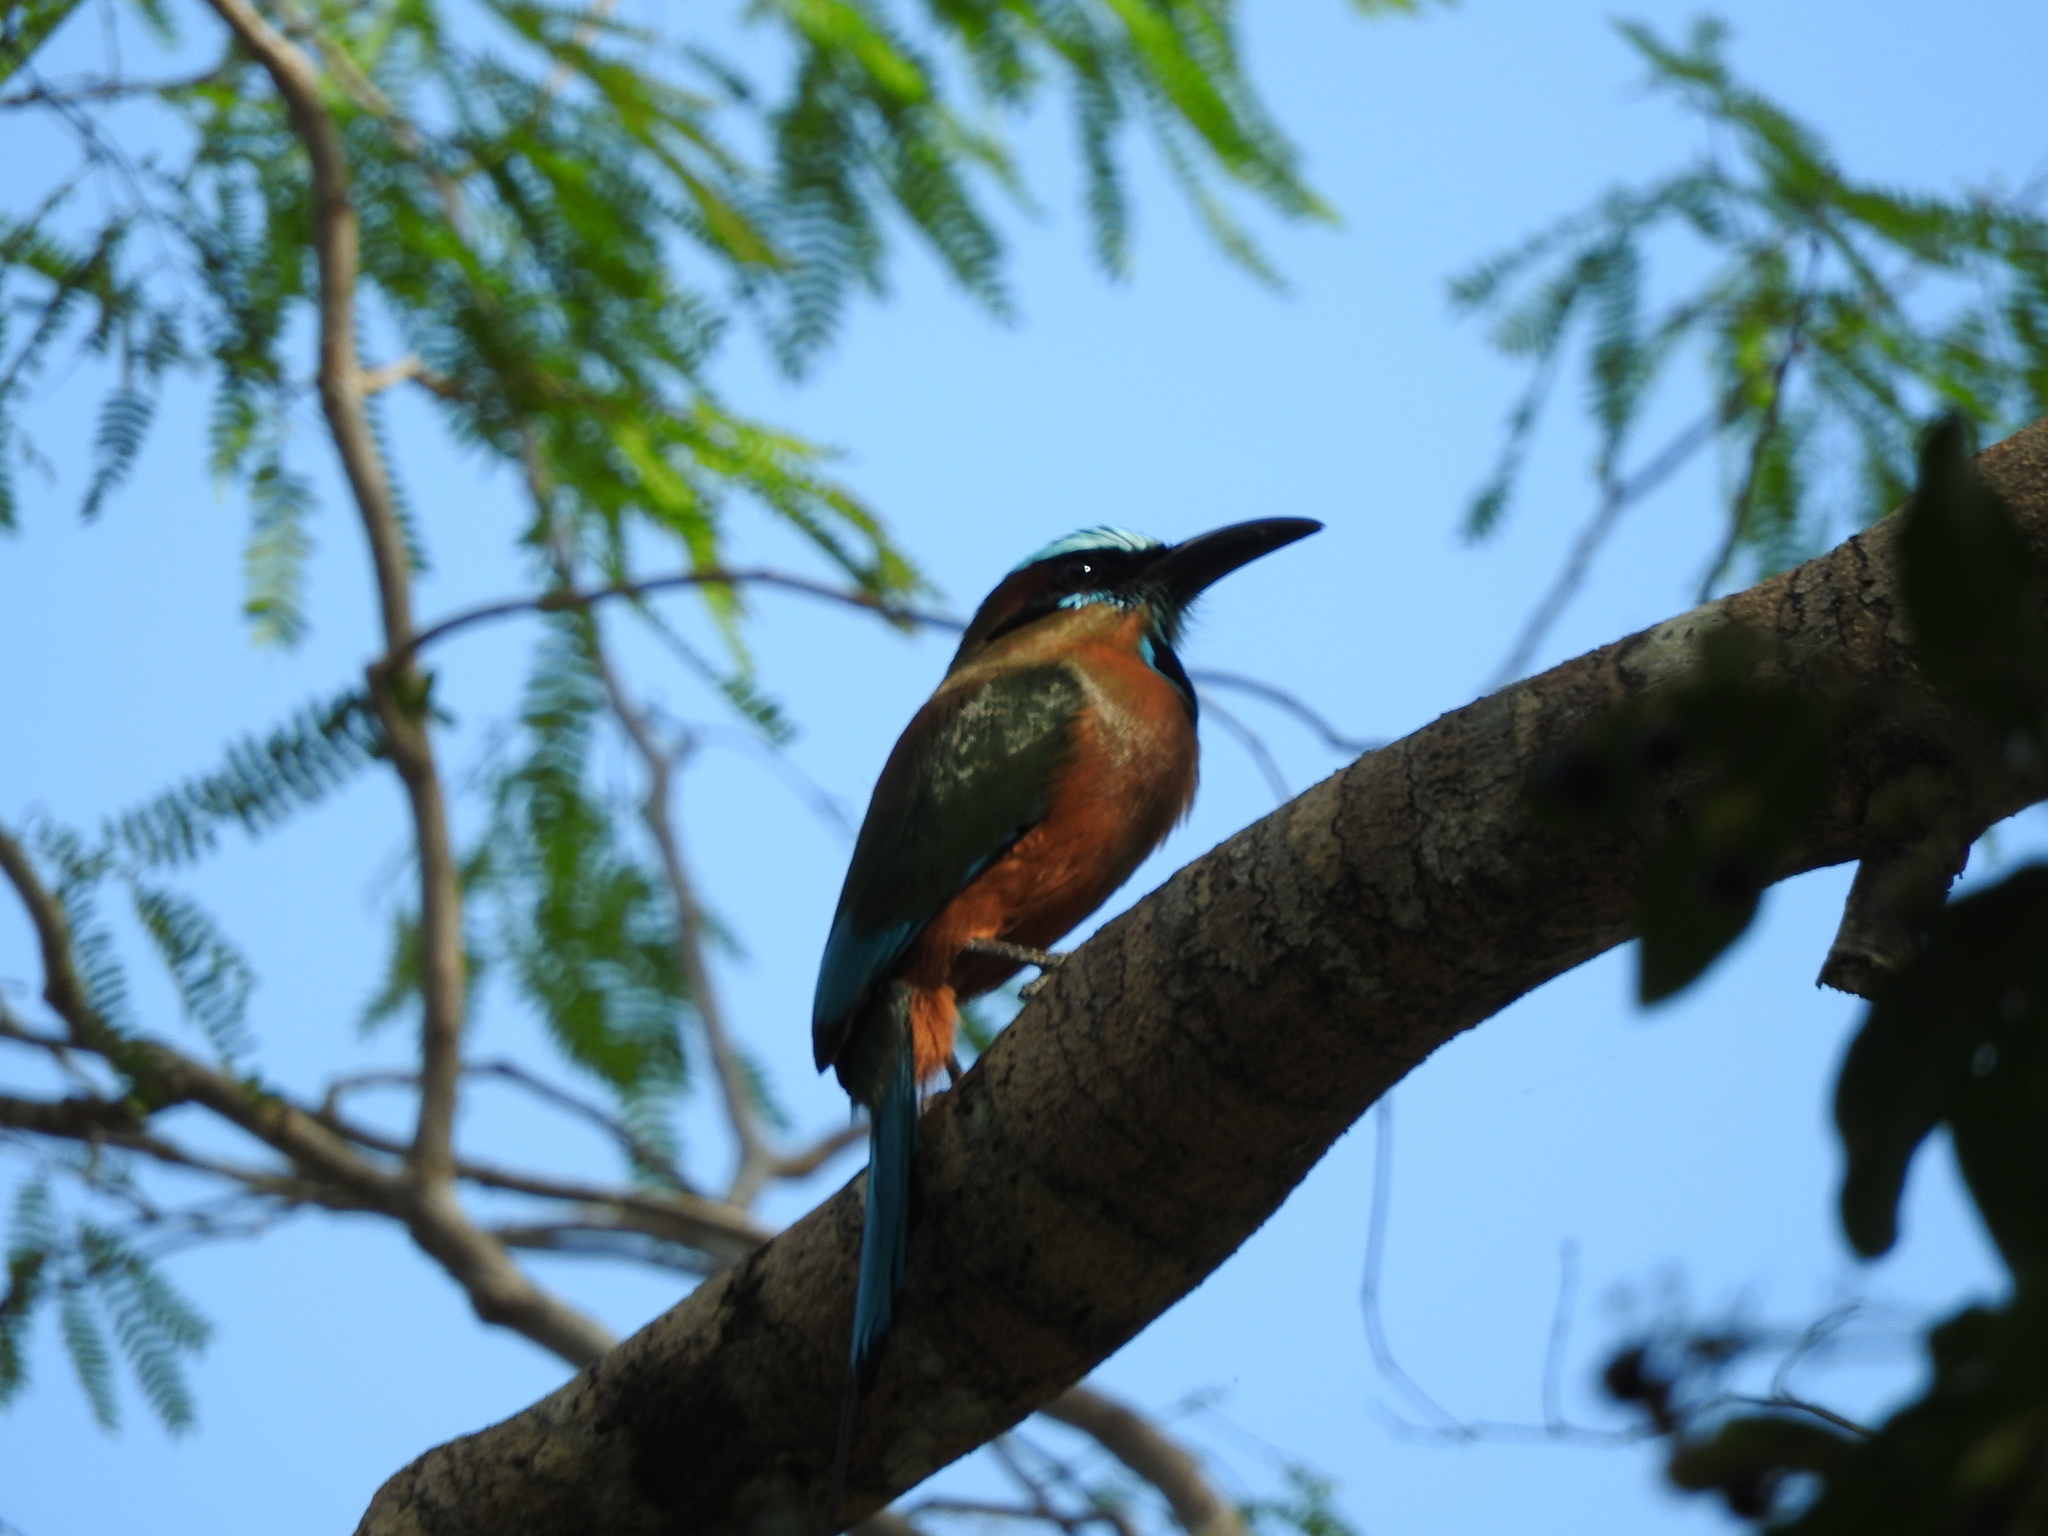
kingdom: Animalia
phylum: Chordata
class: Aves
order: Coraciiformes
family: Momotidae
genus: Eumomota
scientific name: Eumomota superciliosa
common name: Turquoise-browed motmot
